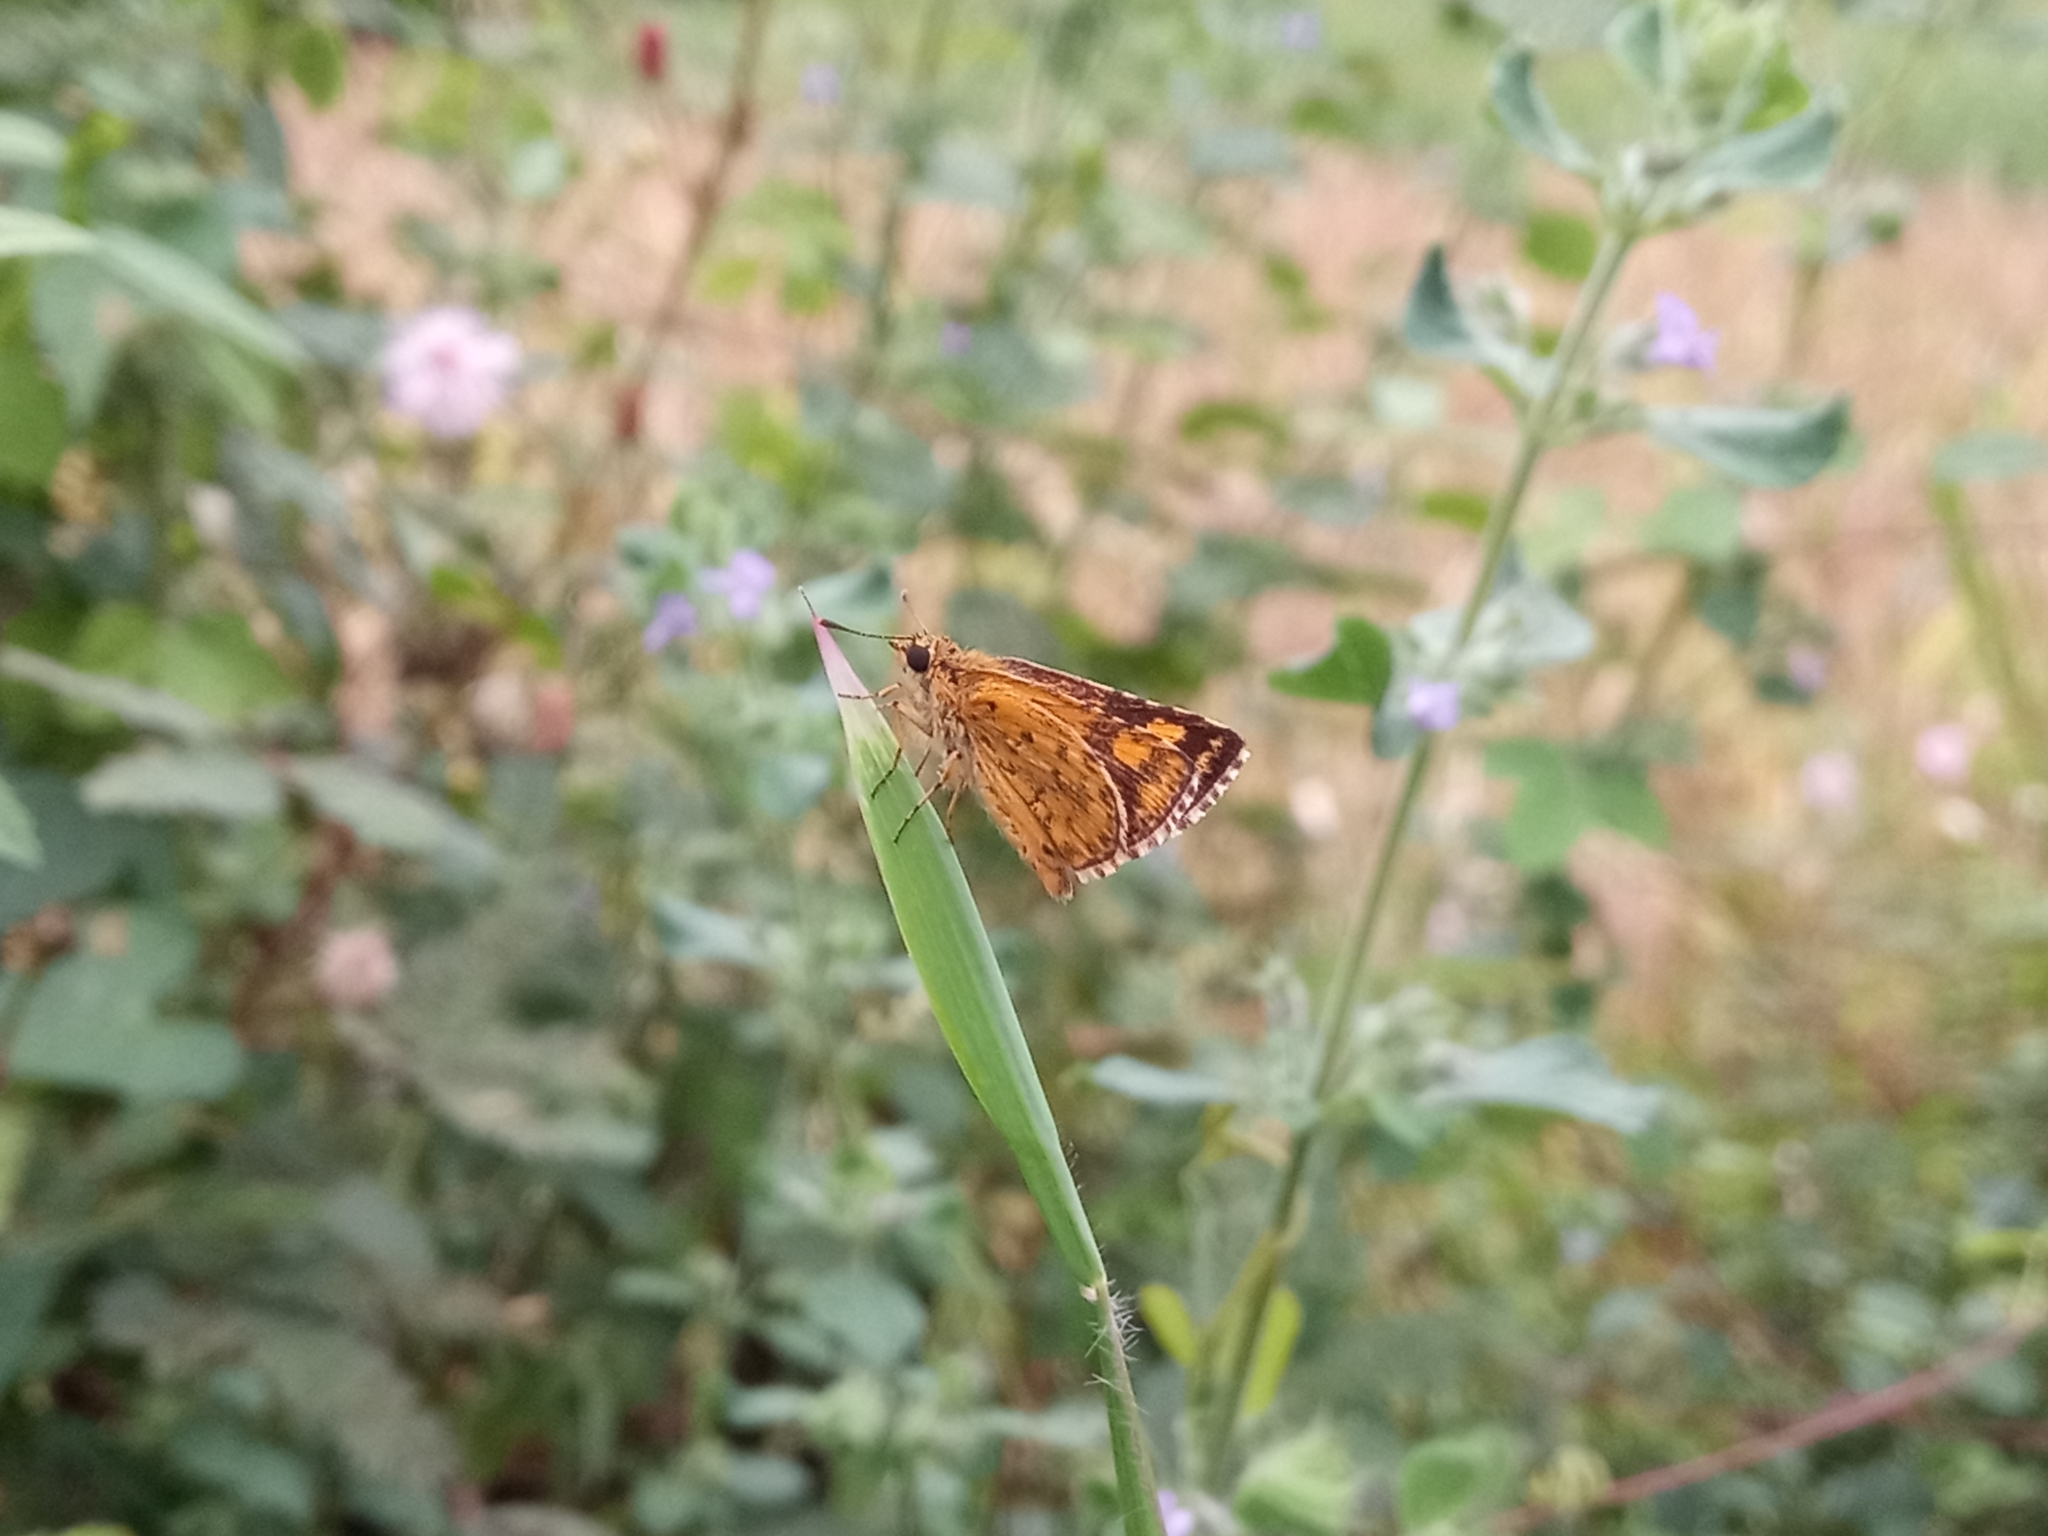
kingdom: Animalia
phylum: Arthropoda
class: Insecta
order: Lepidoptera
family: Hesperiidae
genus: Ampittia
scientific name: Ampittia dioscorides
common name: Common bush hopper
